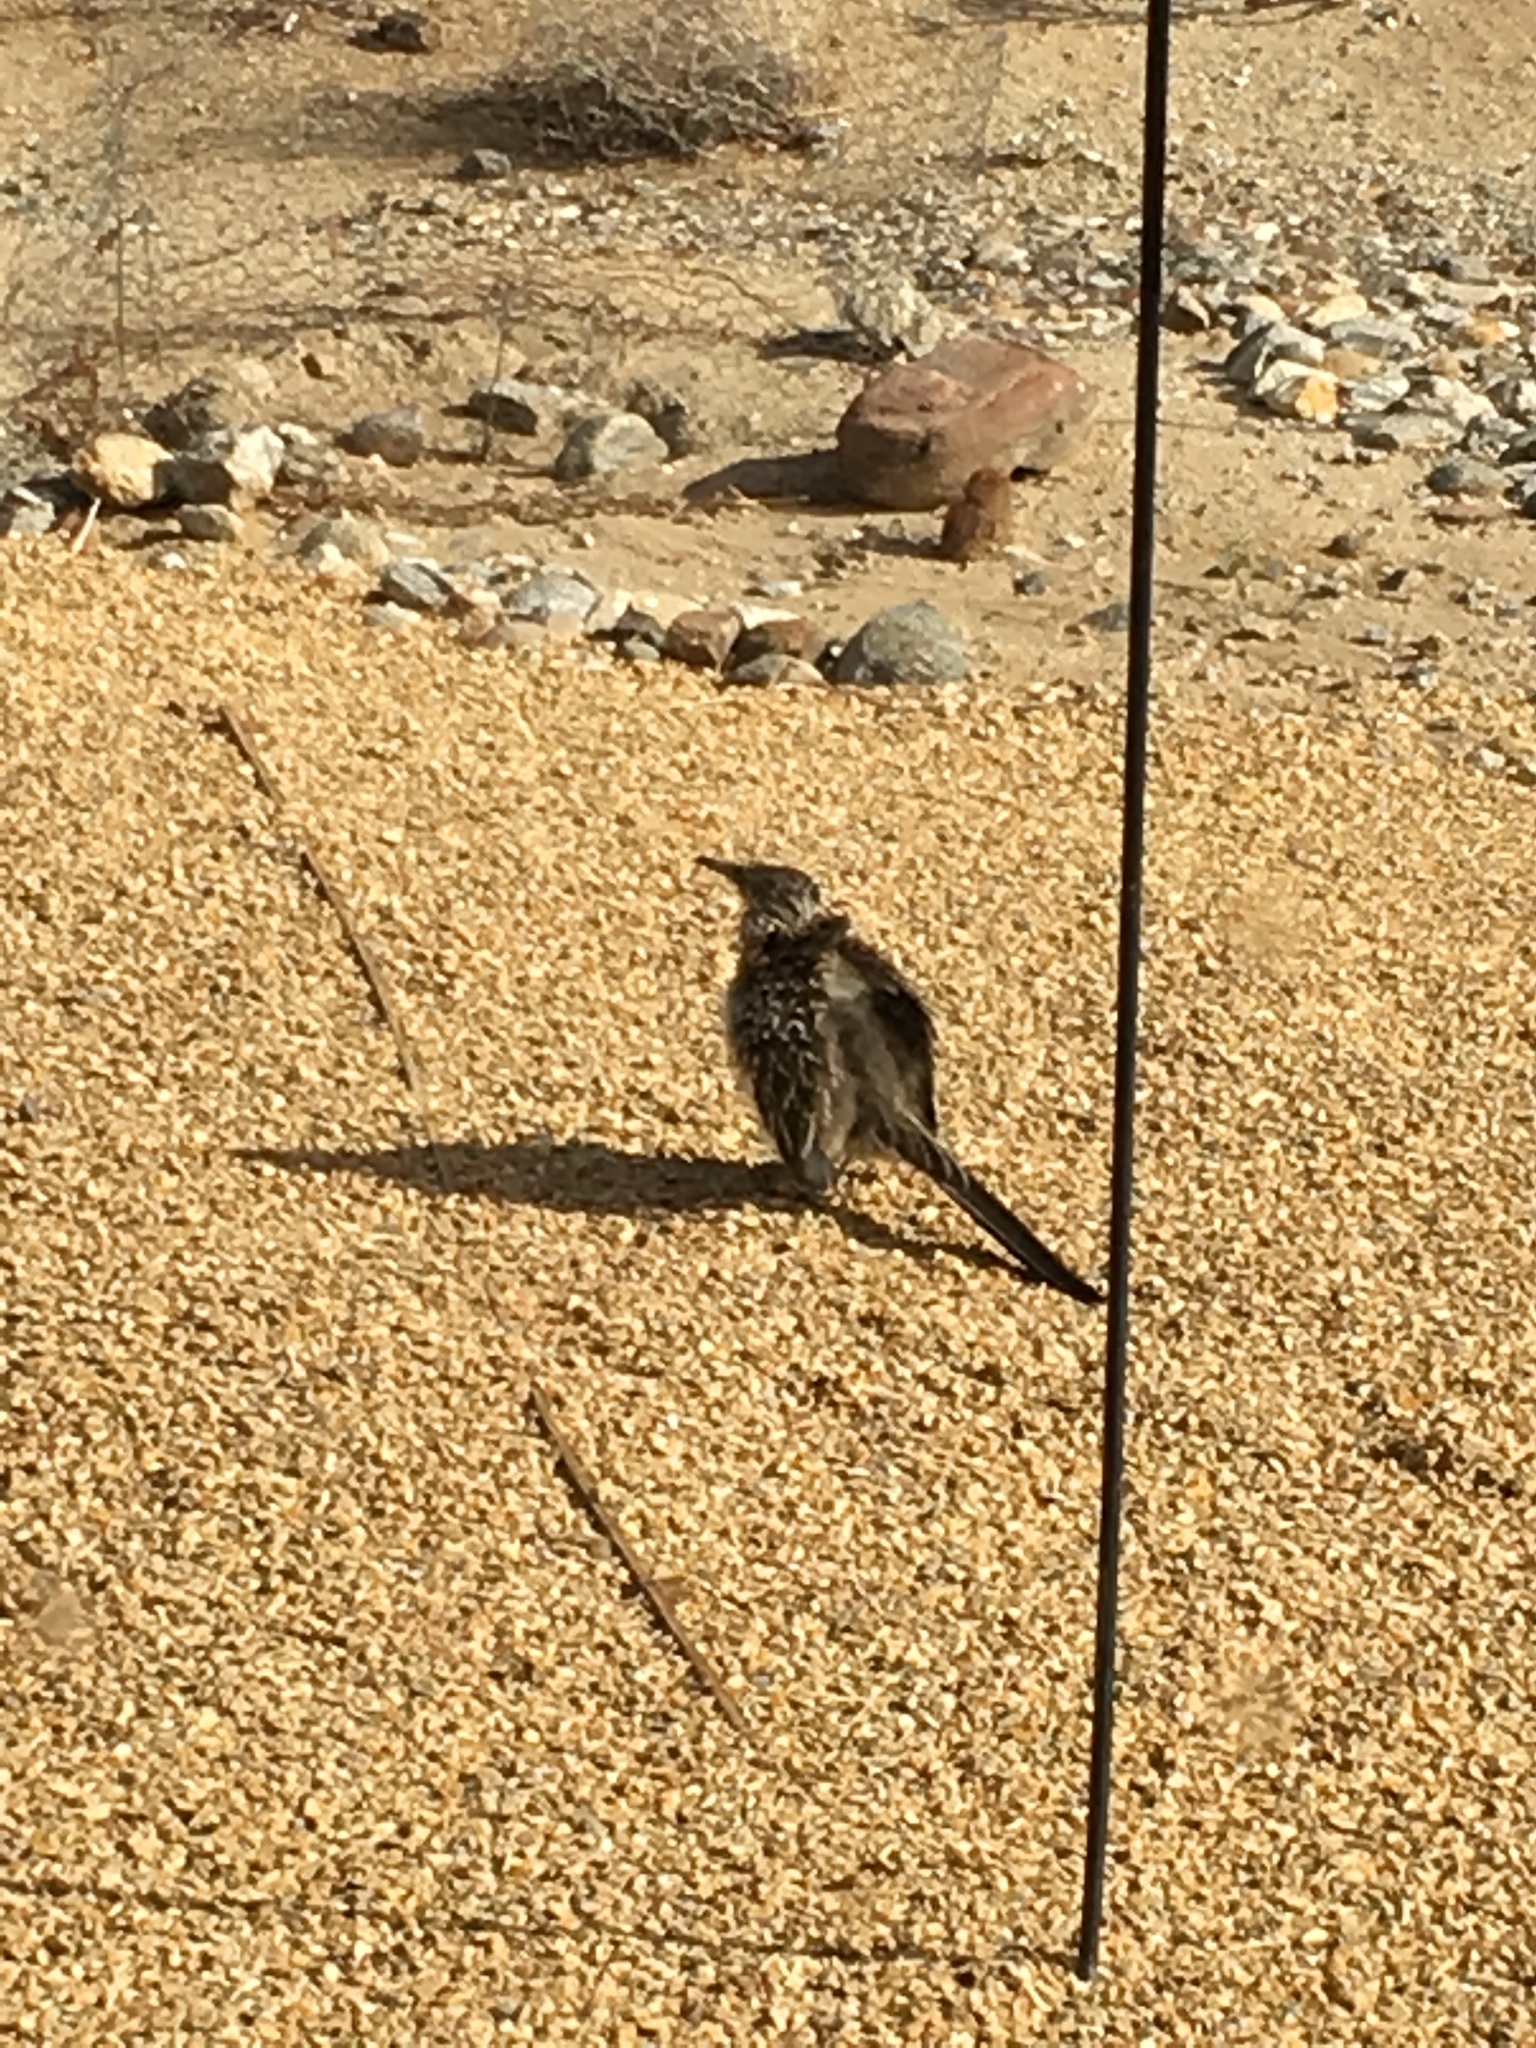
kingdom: Animalia
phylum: Chordata
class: Aves
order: Cuculiformes
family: Cuculidae
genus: Geococcyx
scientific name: Geococcyx californianus
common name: Greater roadrunner
